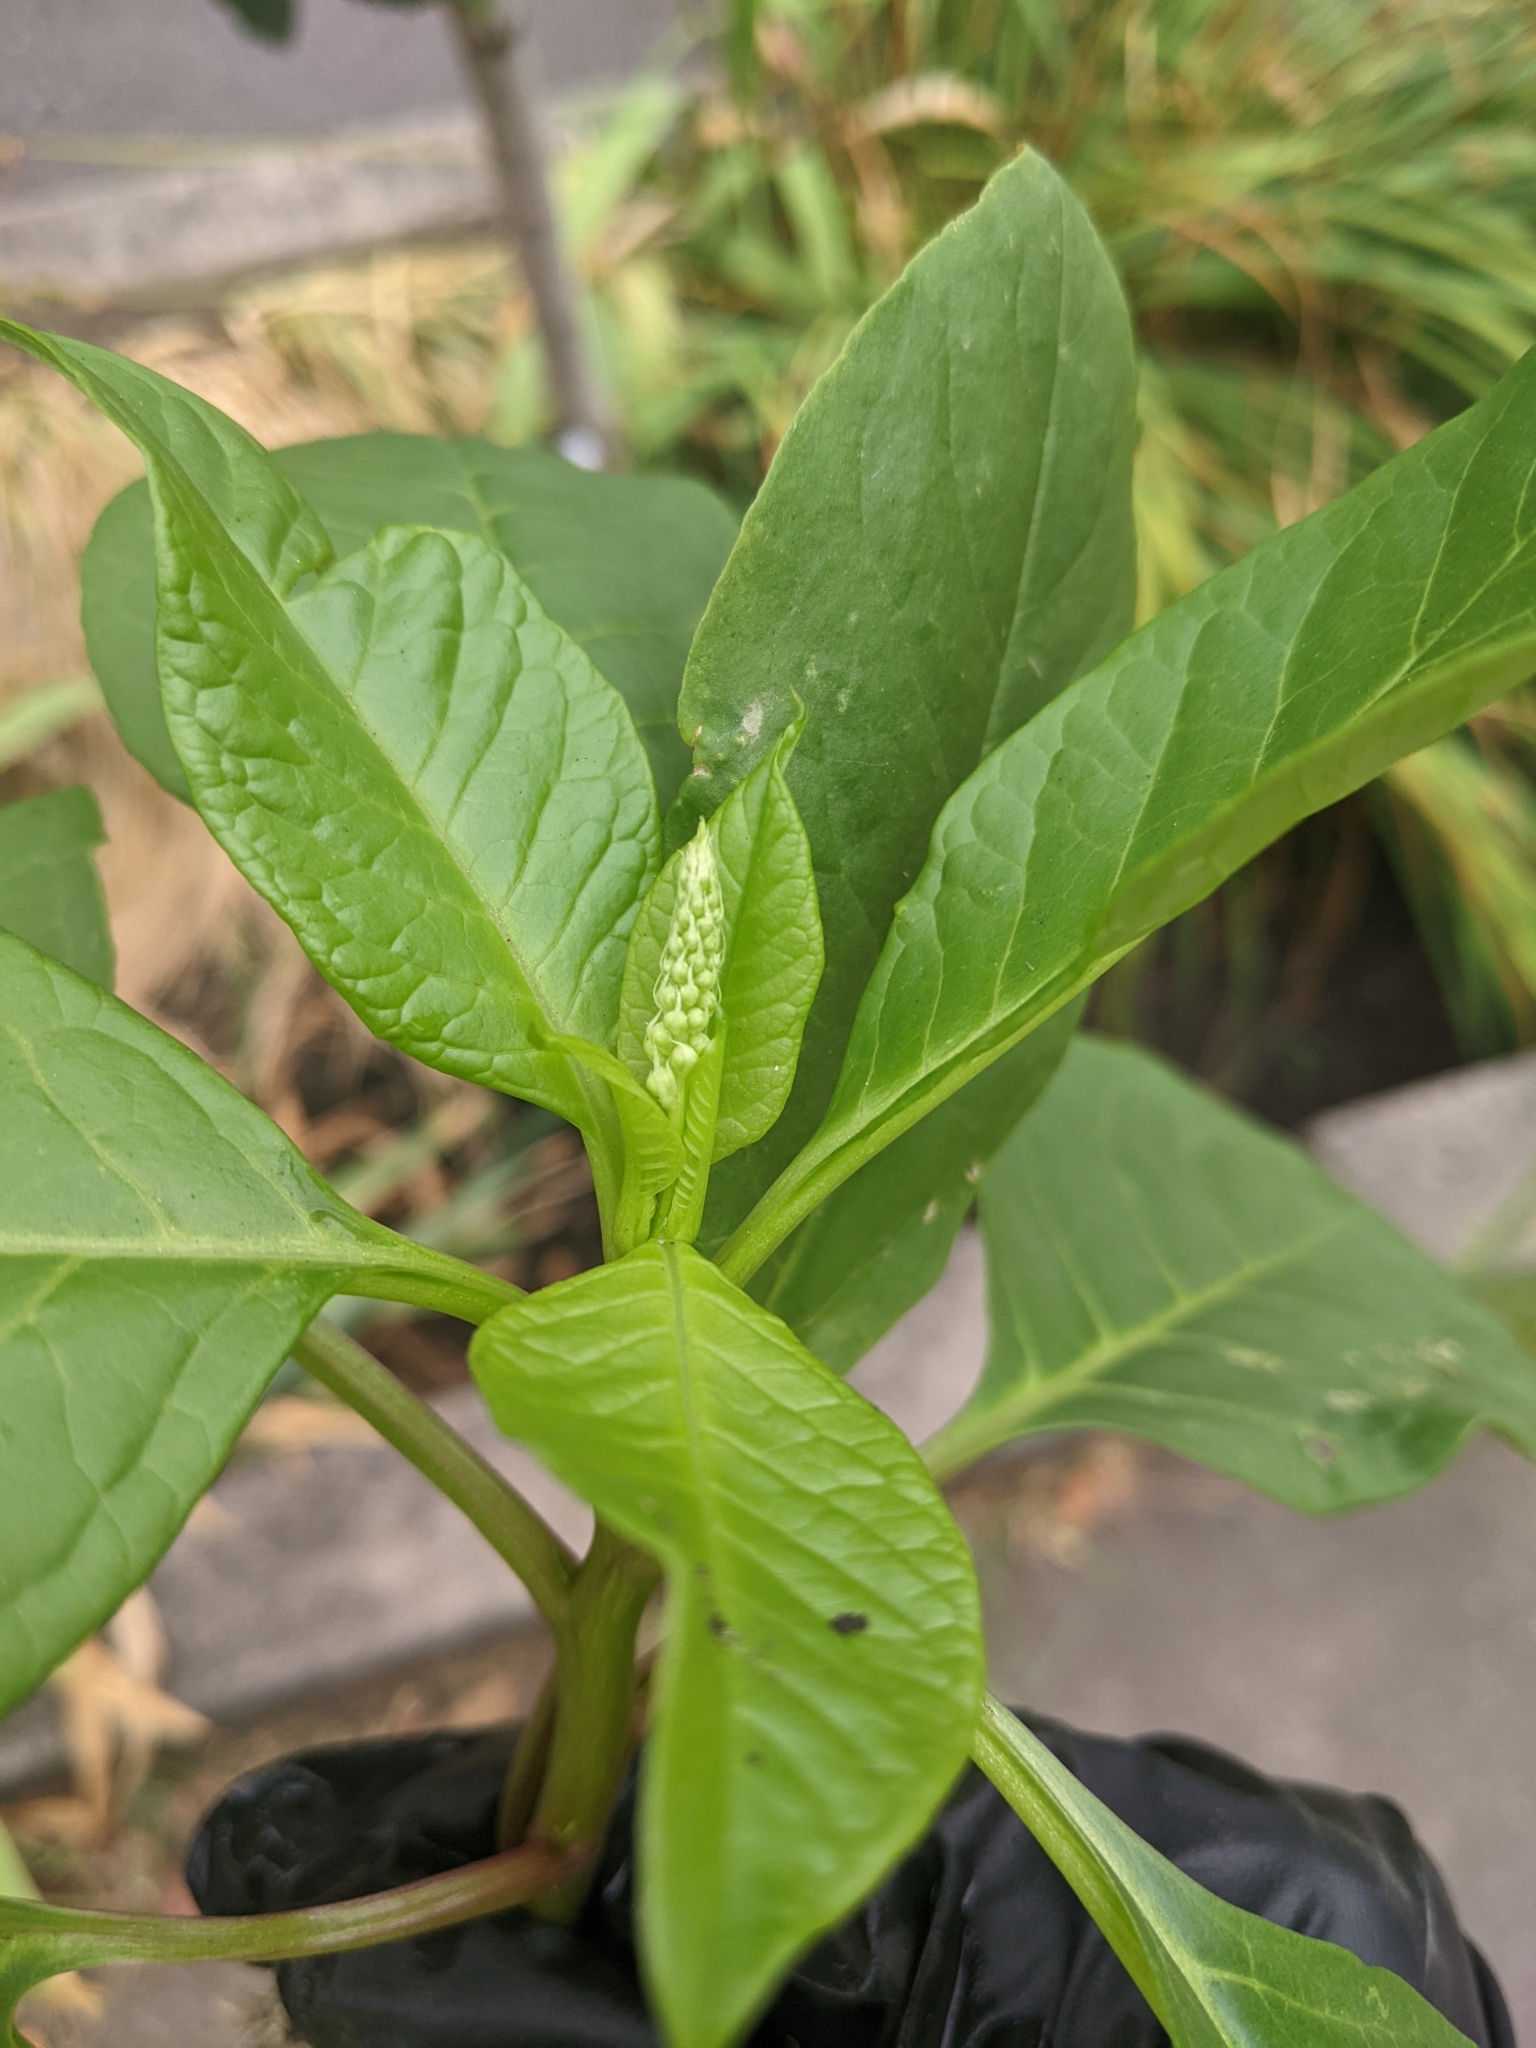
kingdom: Plantae
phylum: Tracheophyta
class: Magnoliopsida
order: Caryophyllales
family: Phytolaccaceae
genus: Phytolacca
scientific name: Phytolacca americana
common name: American pokeweed
